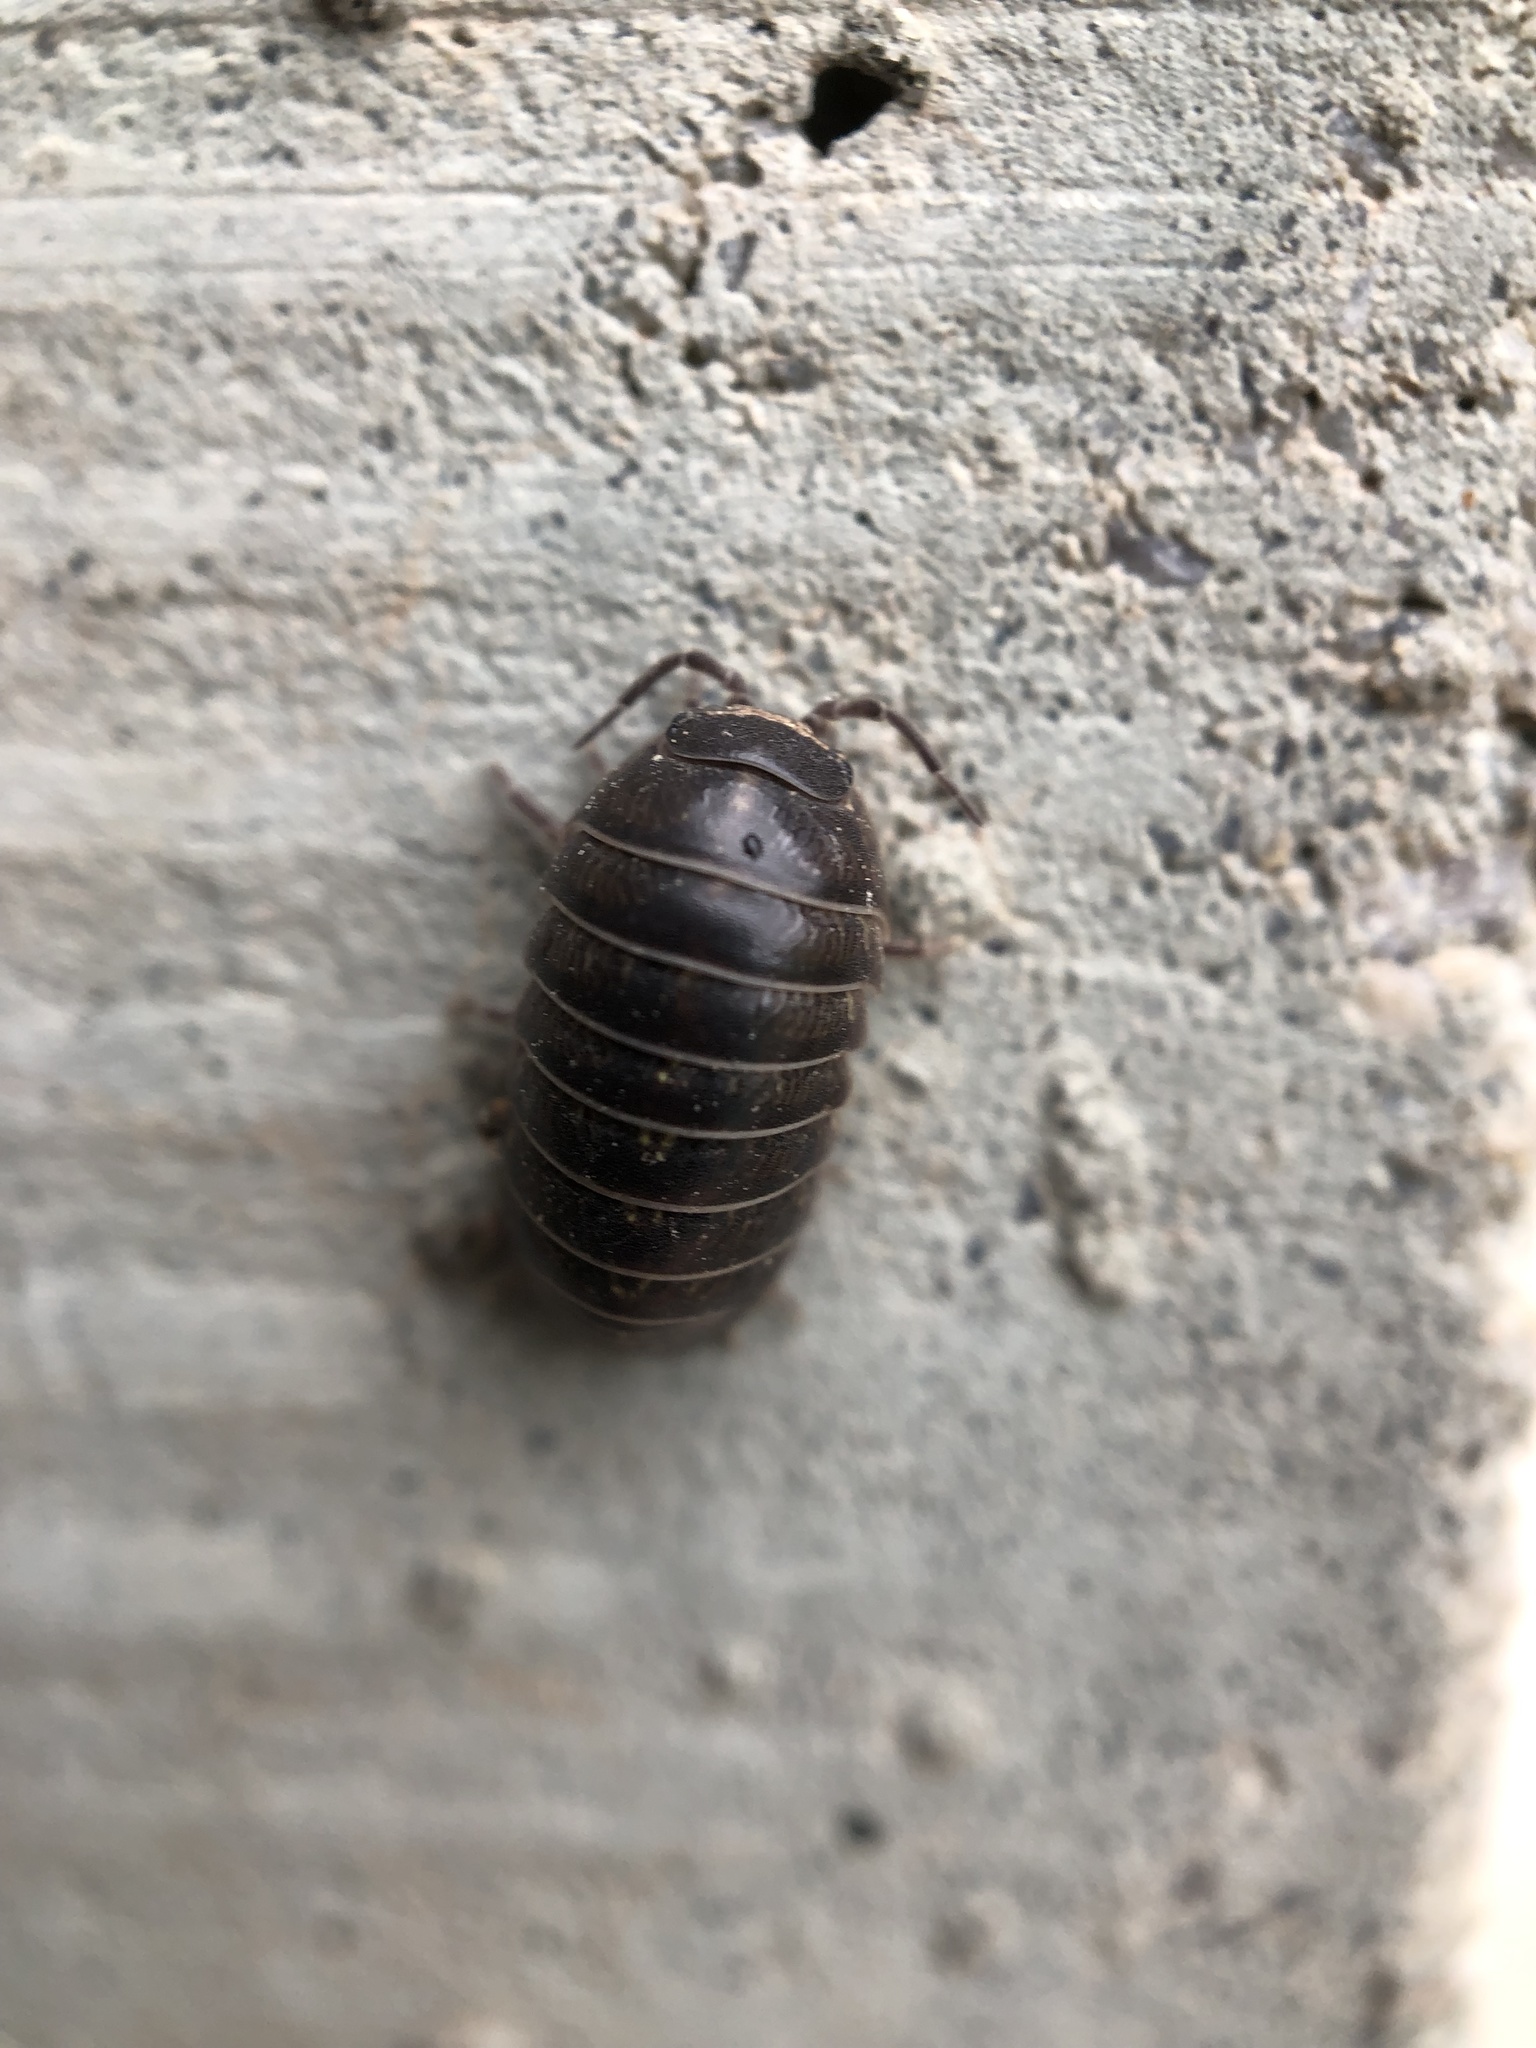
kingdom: Animalia
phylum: Arthropoda
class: Malacostraca
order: Isopoda
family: Armadillidiidae
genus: Armadillidium
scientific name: Armadillidium vulgare
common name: Common pill woodlouse
